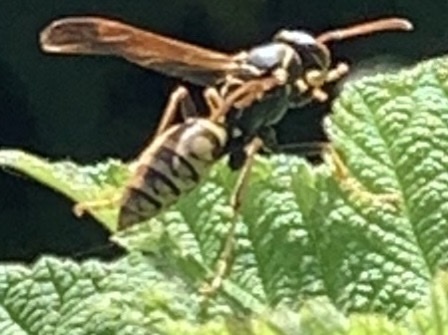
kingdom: Animalia
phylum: Arthropoda
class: Insecta
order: Hymenoptera
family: Eumenidae
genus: Polistes
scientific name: Polistes aurifer
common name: Paper wasp
